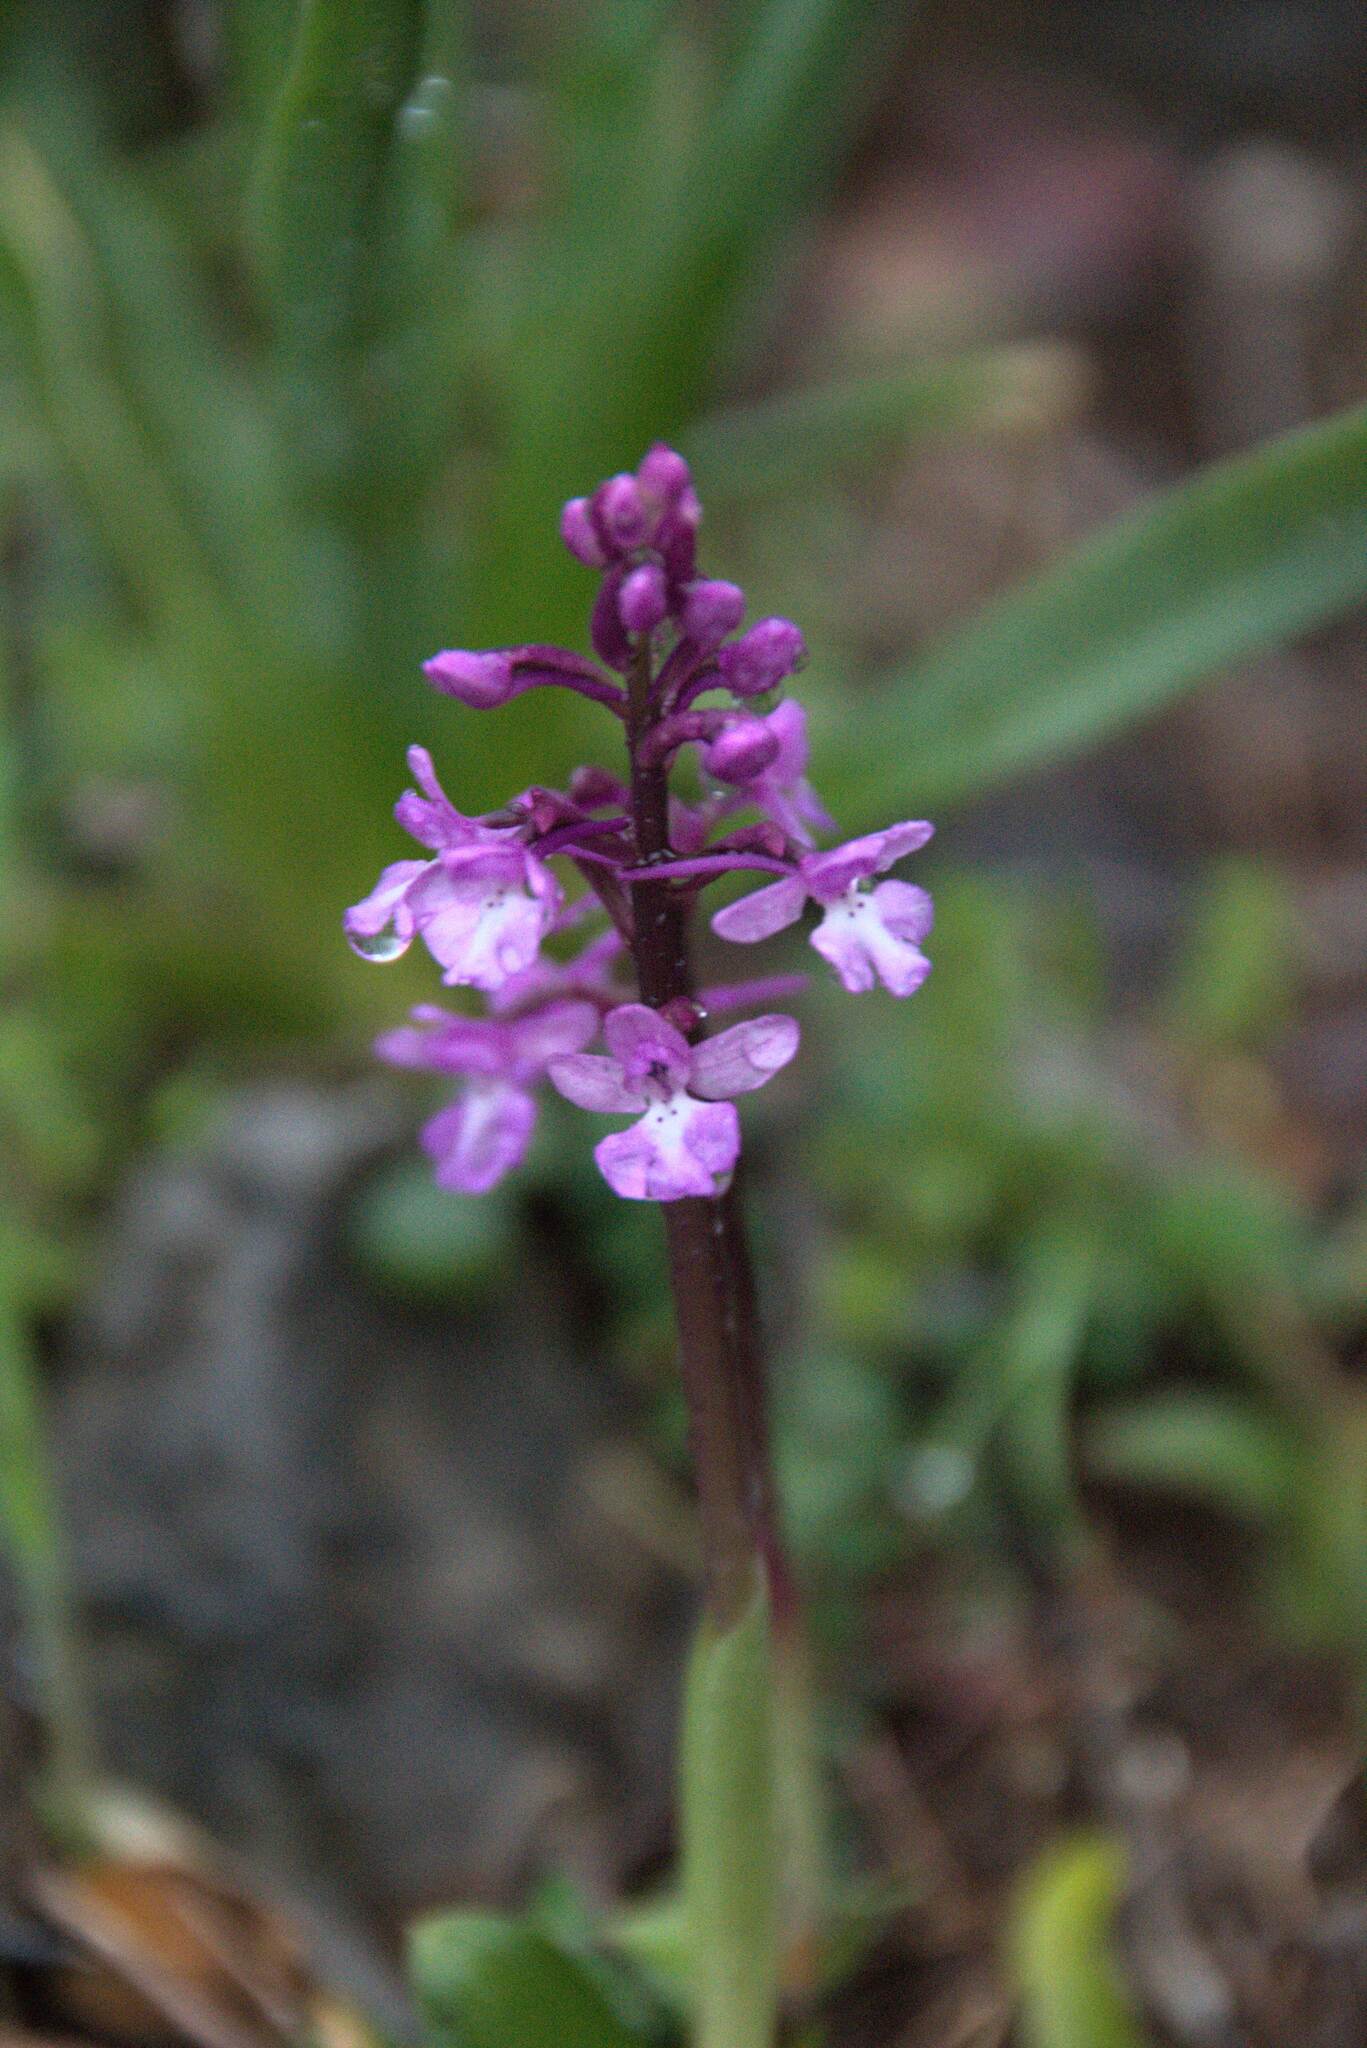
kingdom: Plantae
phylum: Tracheophyta
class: Liliopsida
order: Asparagales
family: Orchidaceae
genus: Orchis
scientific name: Orchis quadripunctata
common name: Four-spotted orchid
